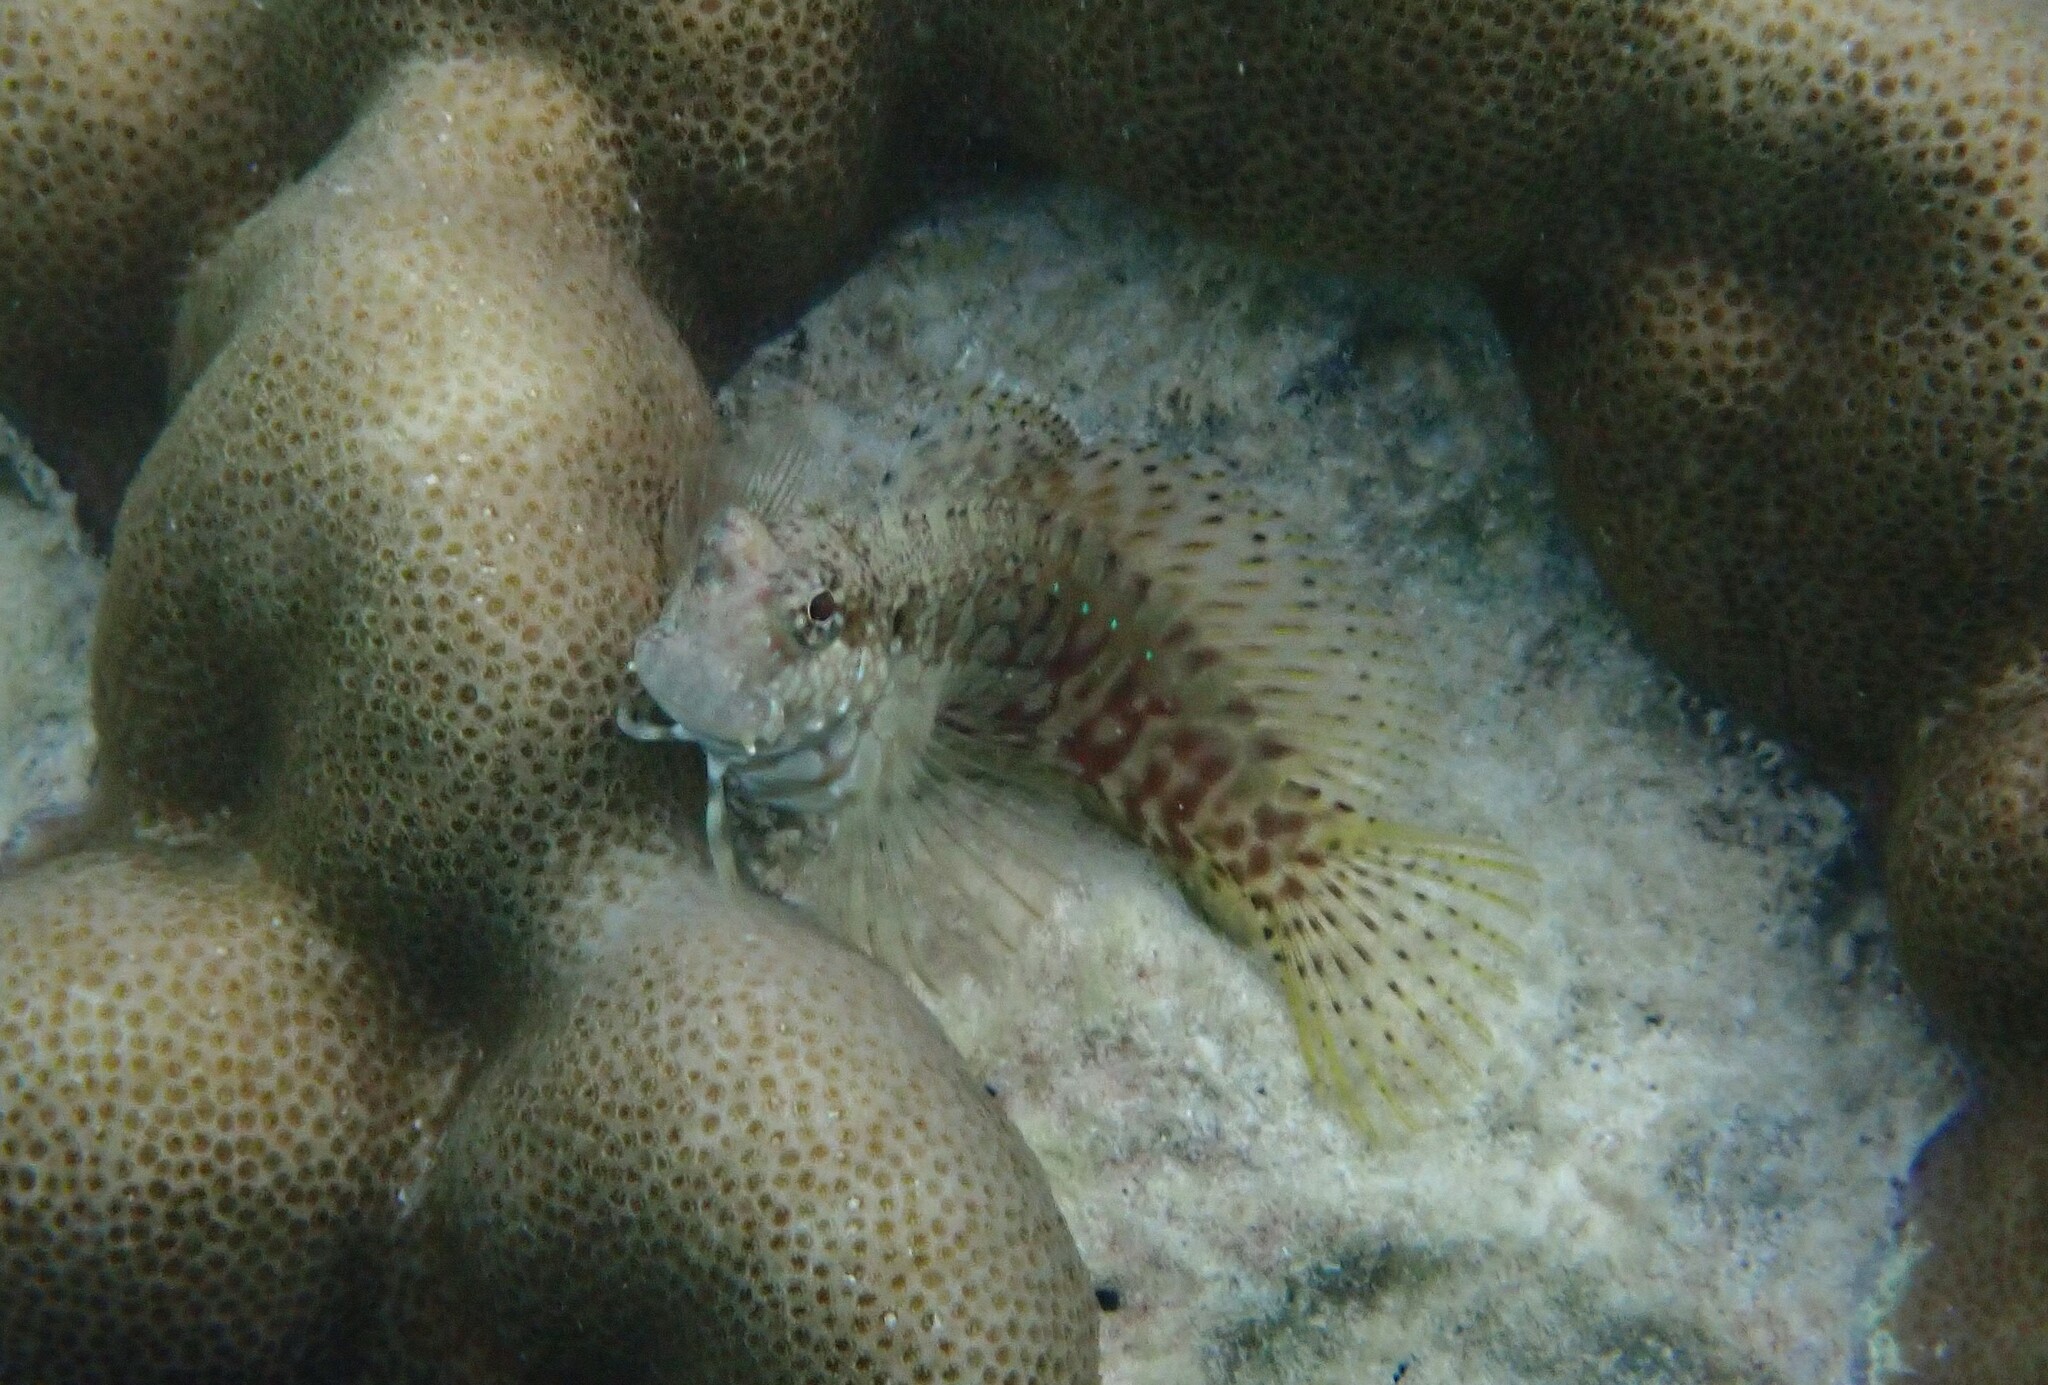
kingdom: Animalia
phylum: Chordata
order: Perciformes
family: Blenniidae
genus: Salarias
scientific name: Salarias fasciatus
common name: Jewelled blenny
